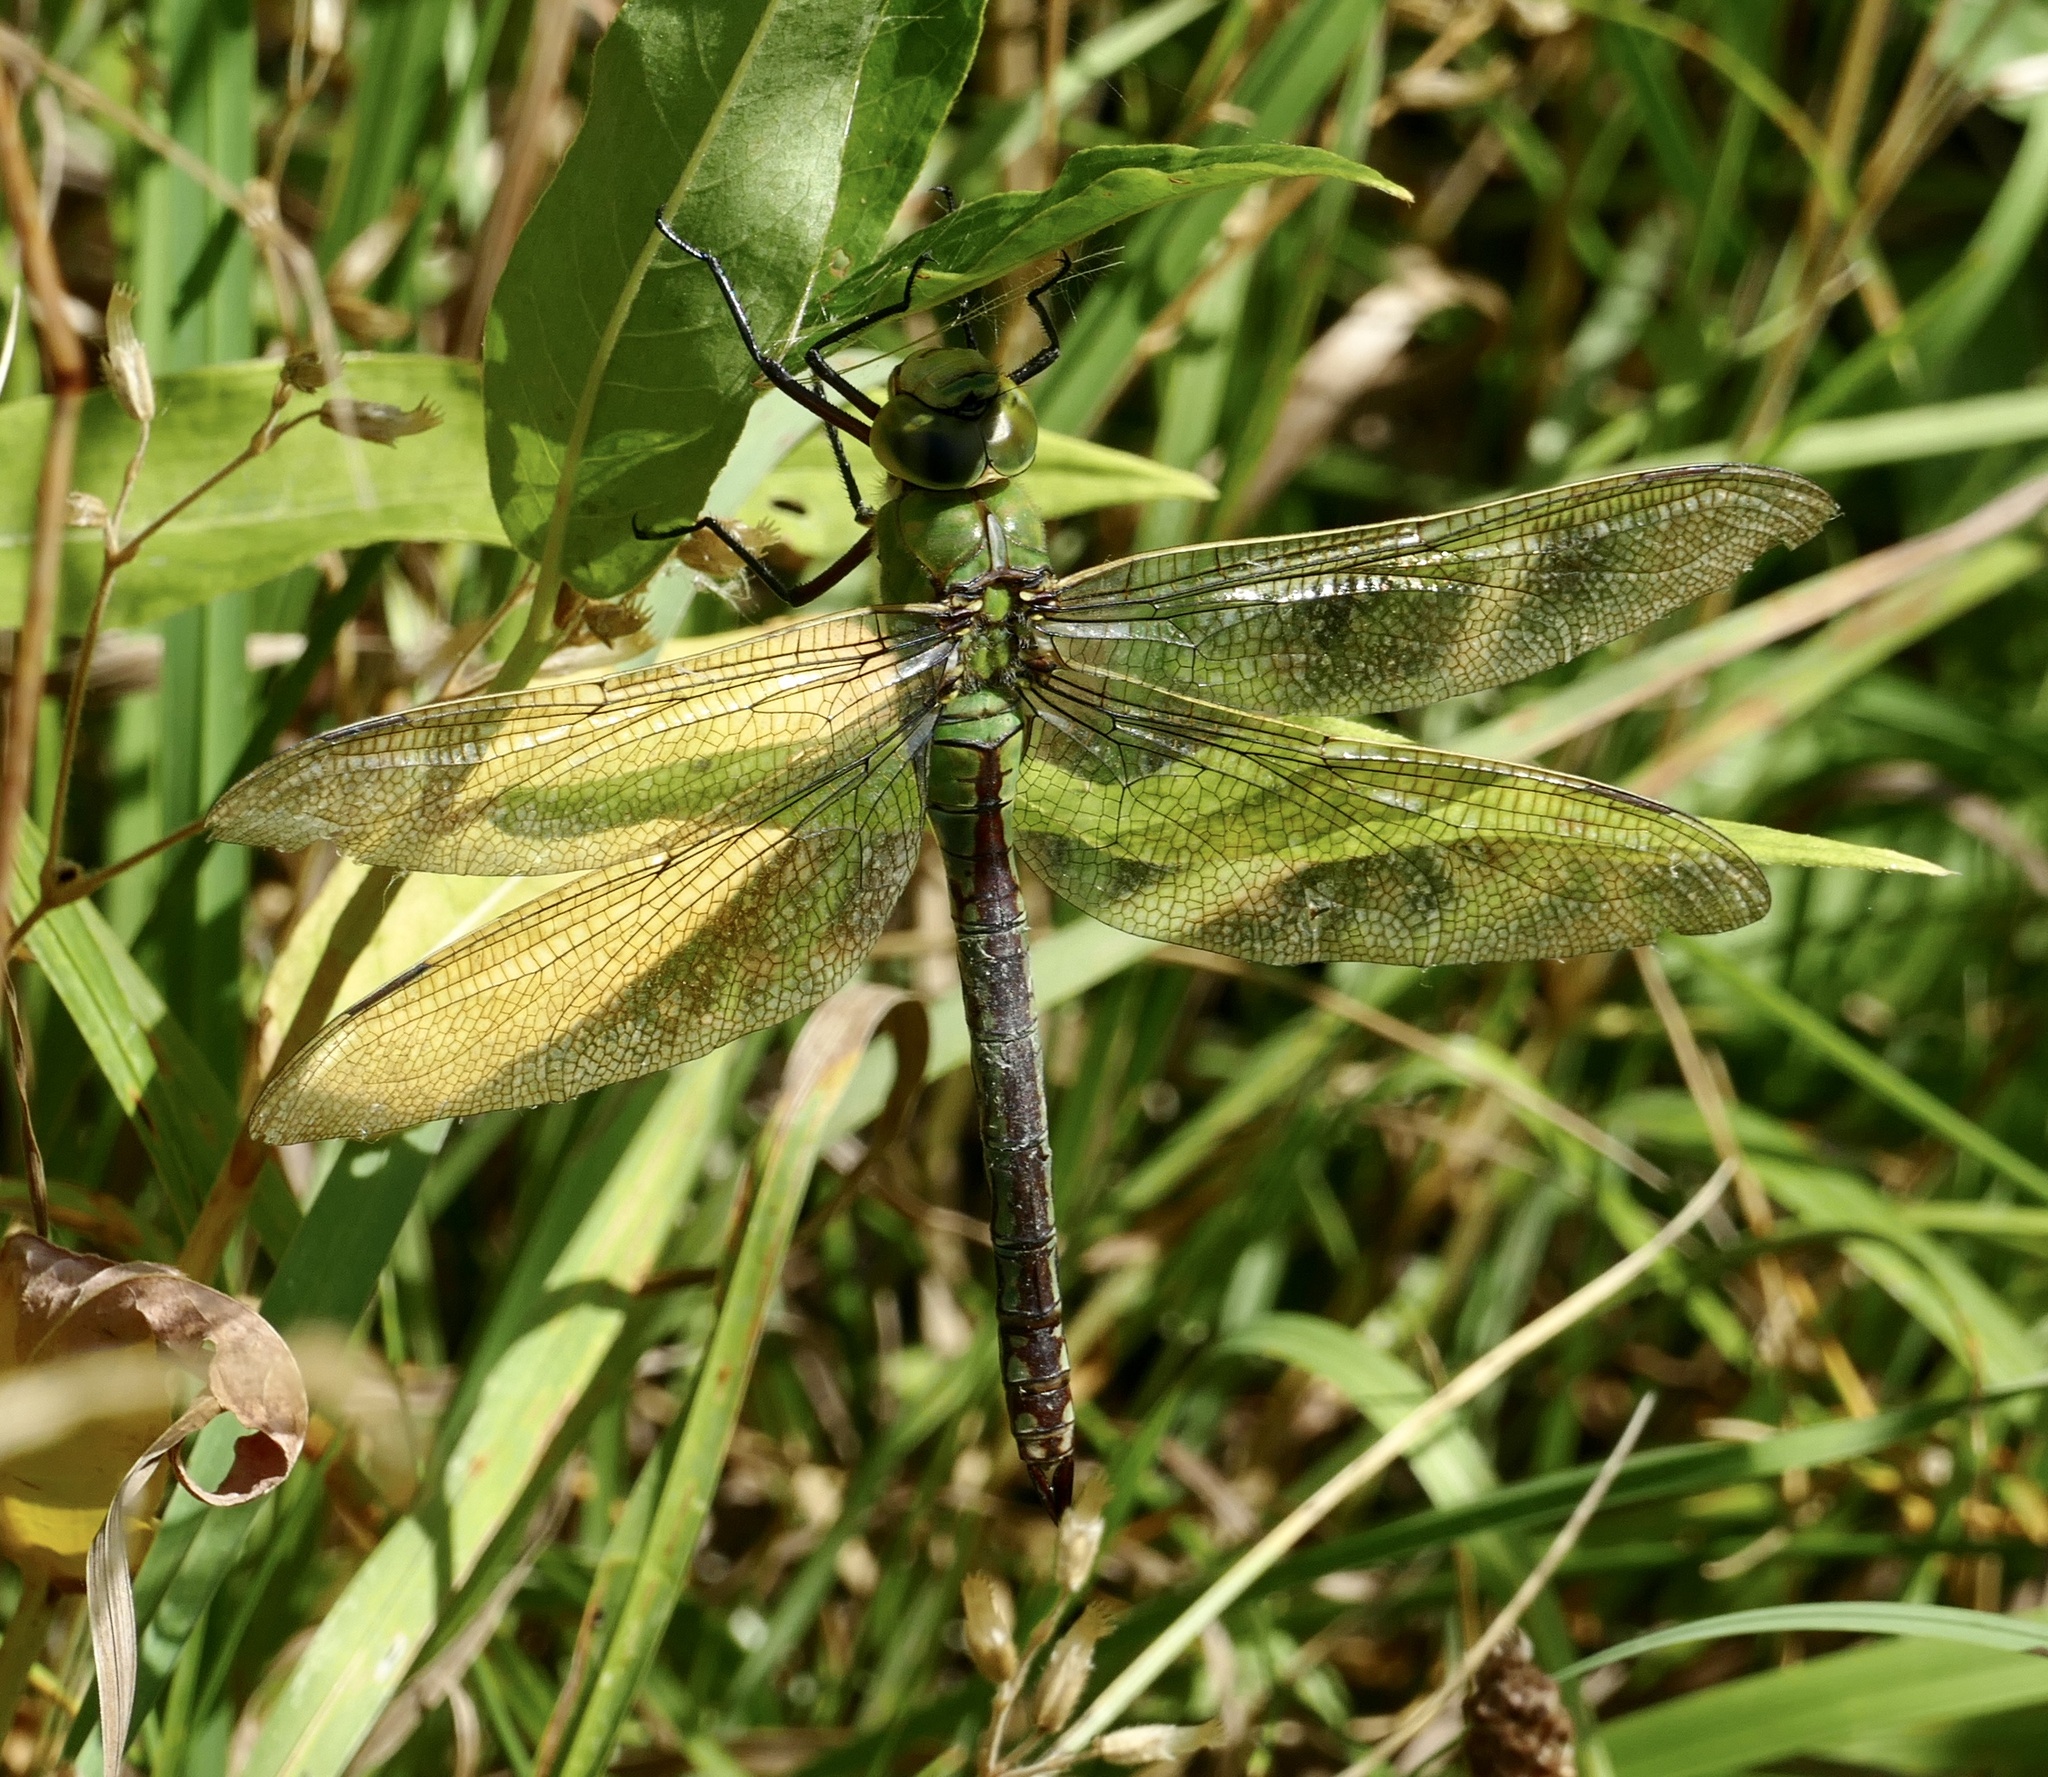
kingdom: Animalia
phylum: Arthropoda
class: Insecta
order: Odonata
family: Aeshnidae
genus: Anax
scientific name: Anax imperator
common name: Emperor dragonfly
